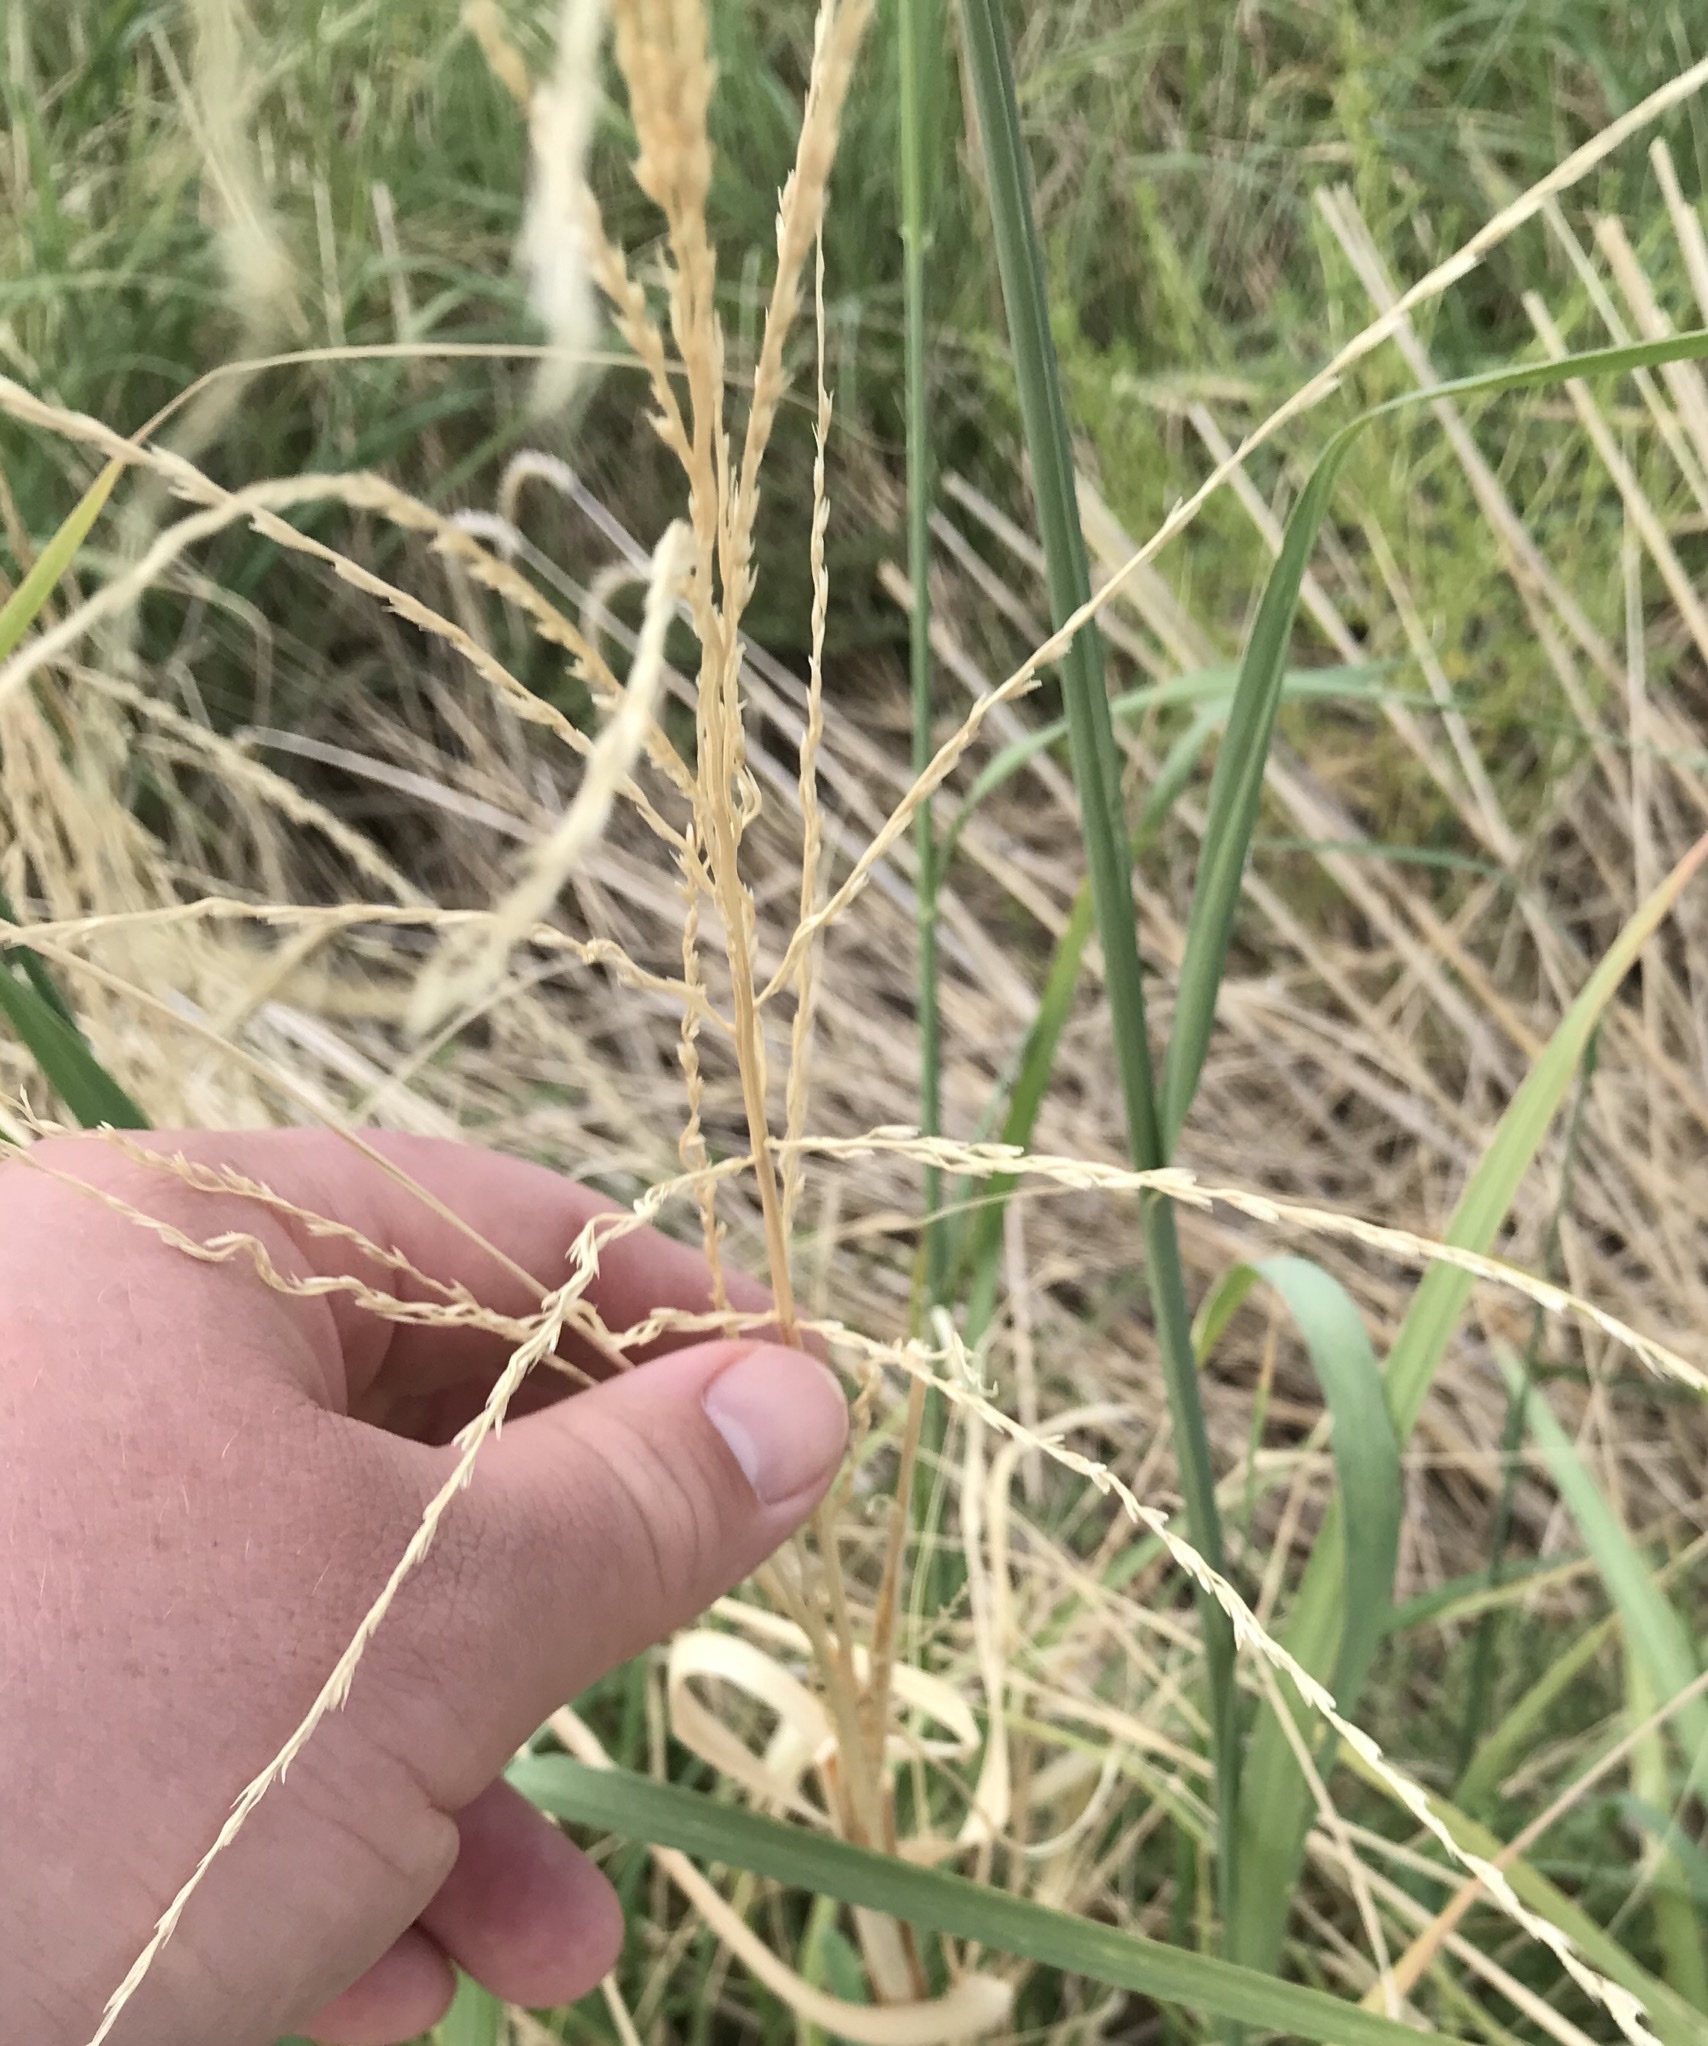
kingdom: Plantae
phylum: Tracheophyta
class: Liliopsida
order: Poales
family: Poaceae
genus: Disakisperma
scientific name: Disakisperma dubium
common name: Green sprangletop
